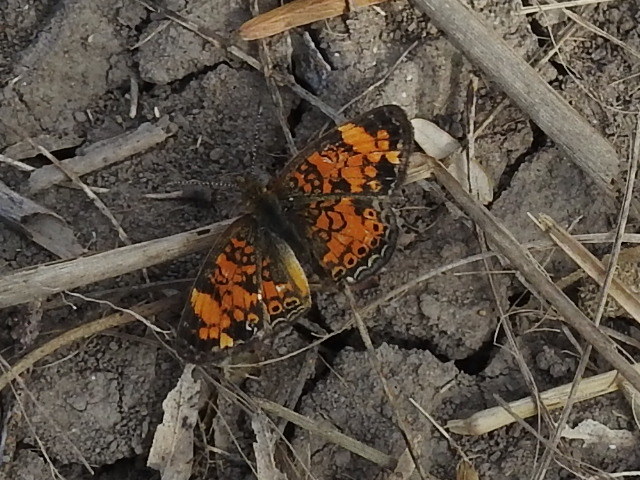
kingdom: Animalia
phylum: Arthropoda
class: Insecta
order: Lepidoptera
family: Nymphalidae
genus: Phyciodes
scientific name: Phyciodes tharos
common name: Pearl crescent
